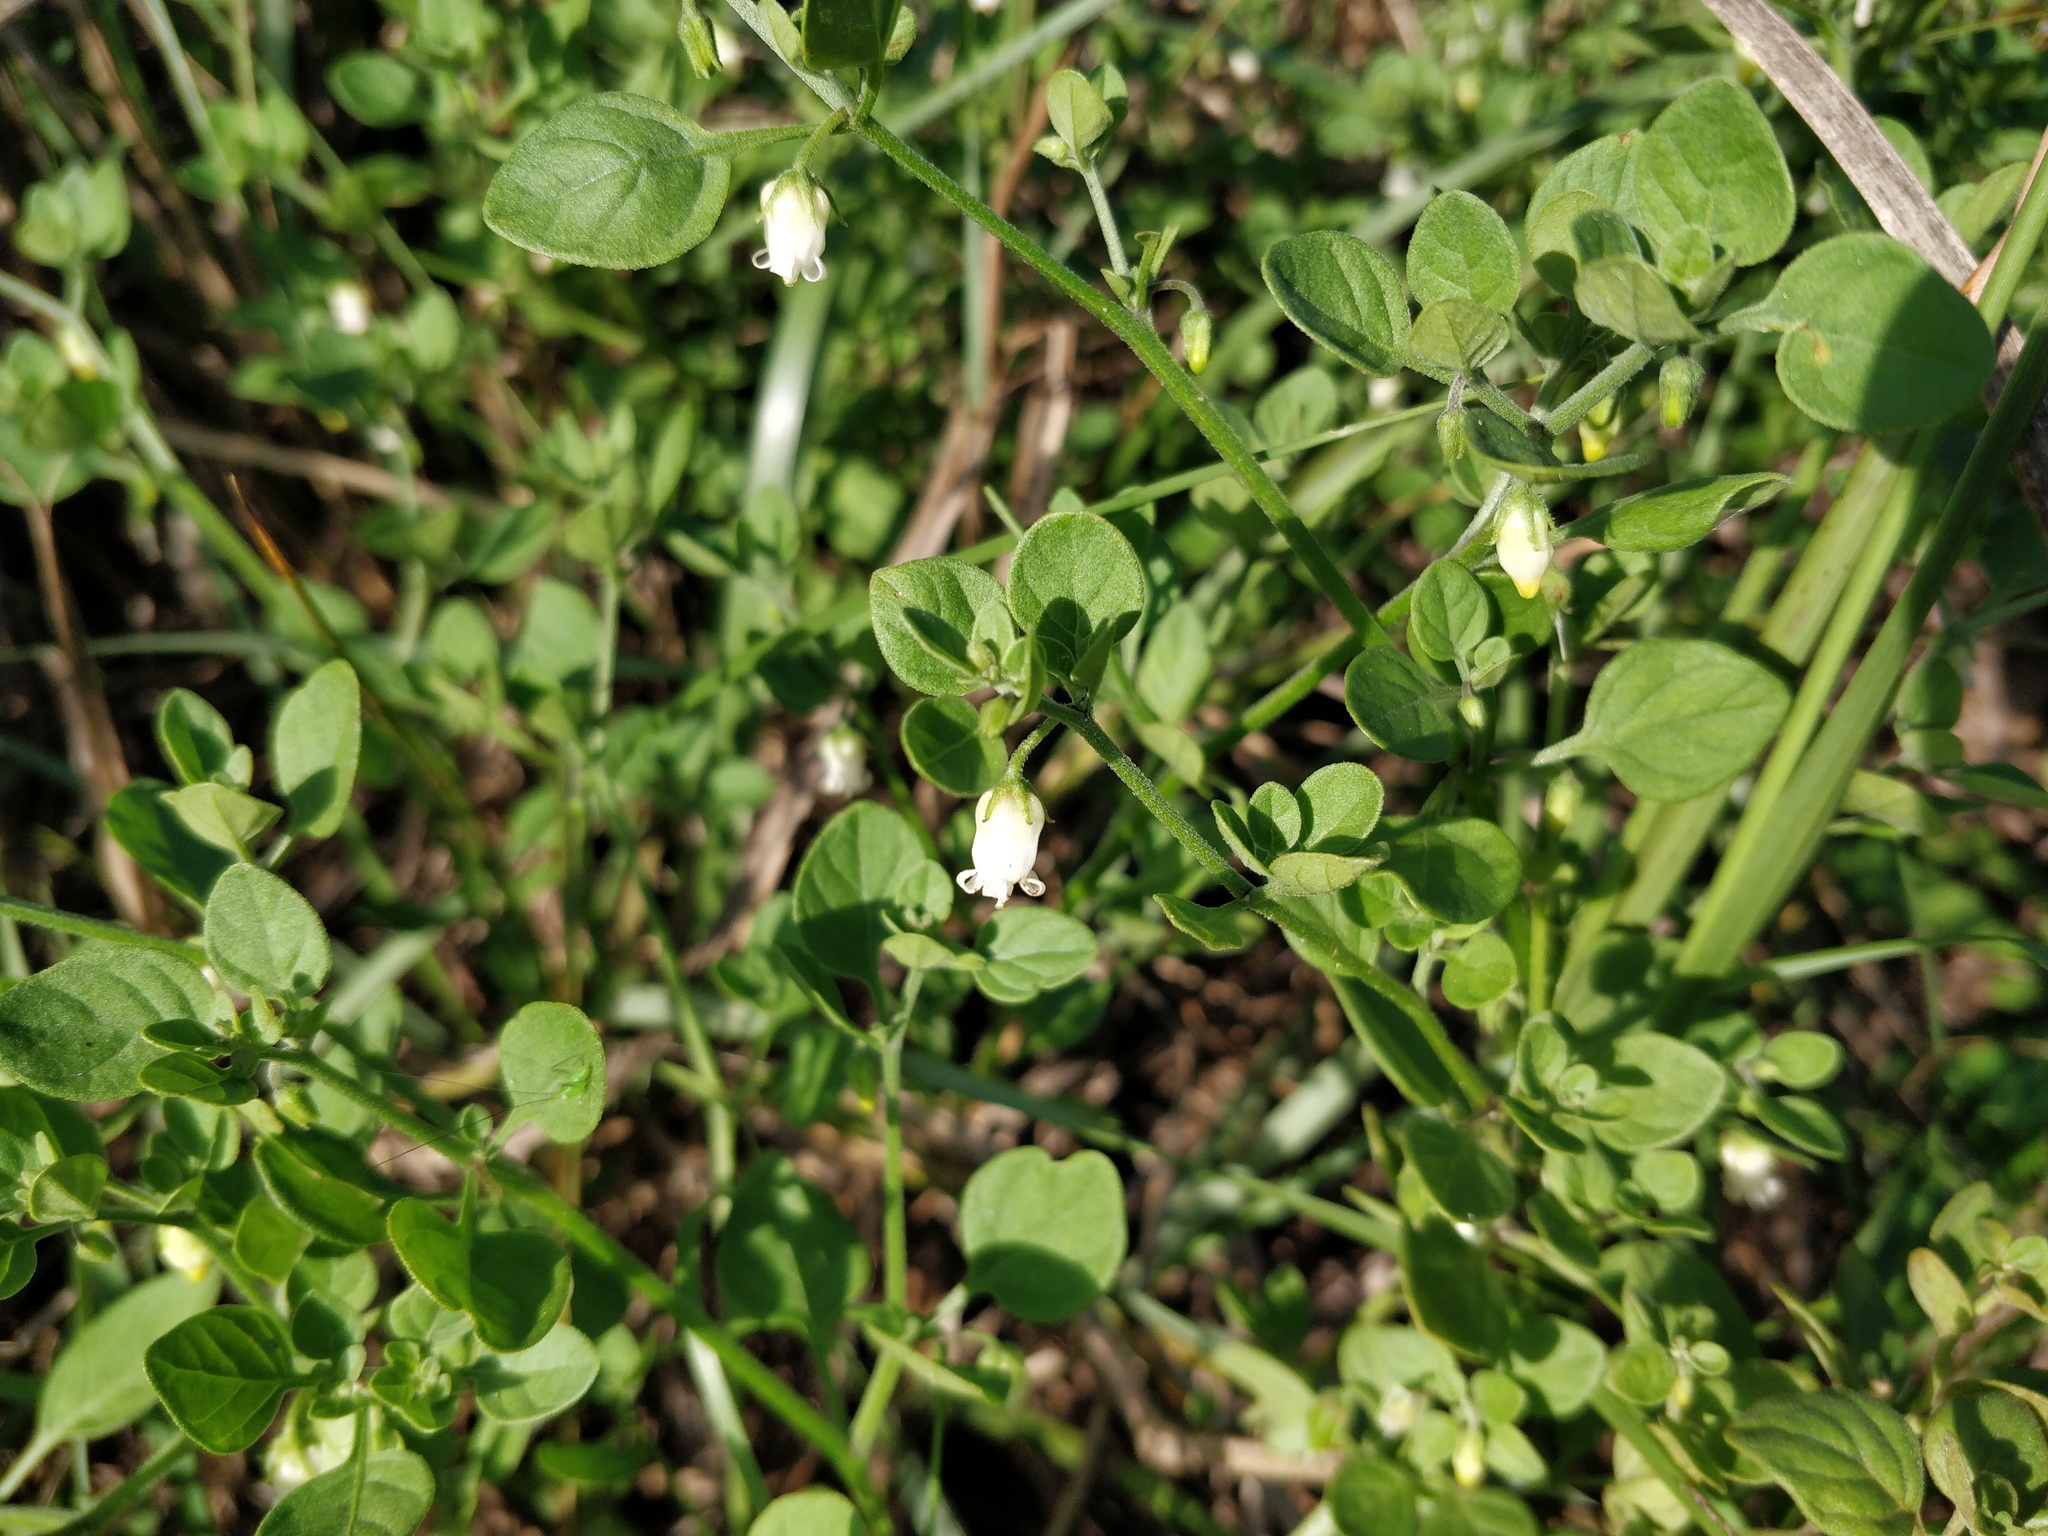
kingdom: Plantae
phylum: Tracheophyta
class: Magnoliopsida
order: Solanales
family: Solanaceae
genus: Salpichroa
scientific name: Salpichroa origanifolia
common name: Lily-of-the-valley-vine
